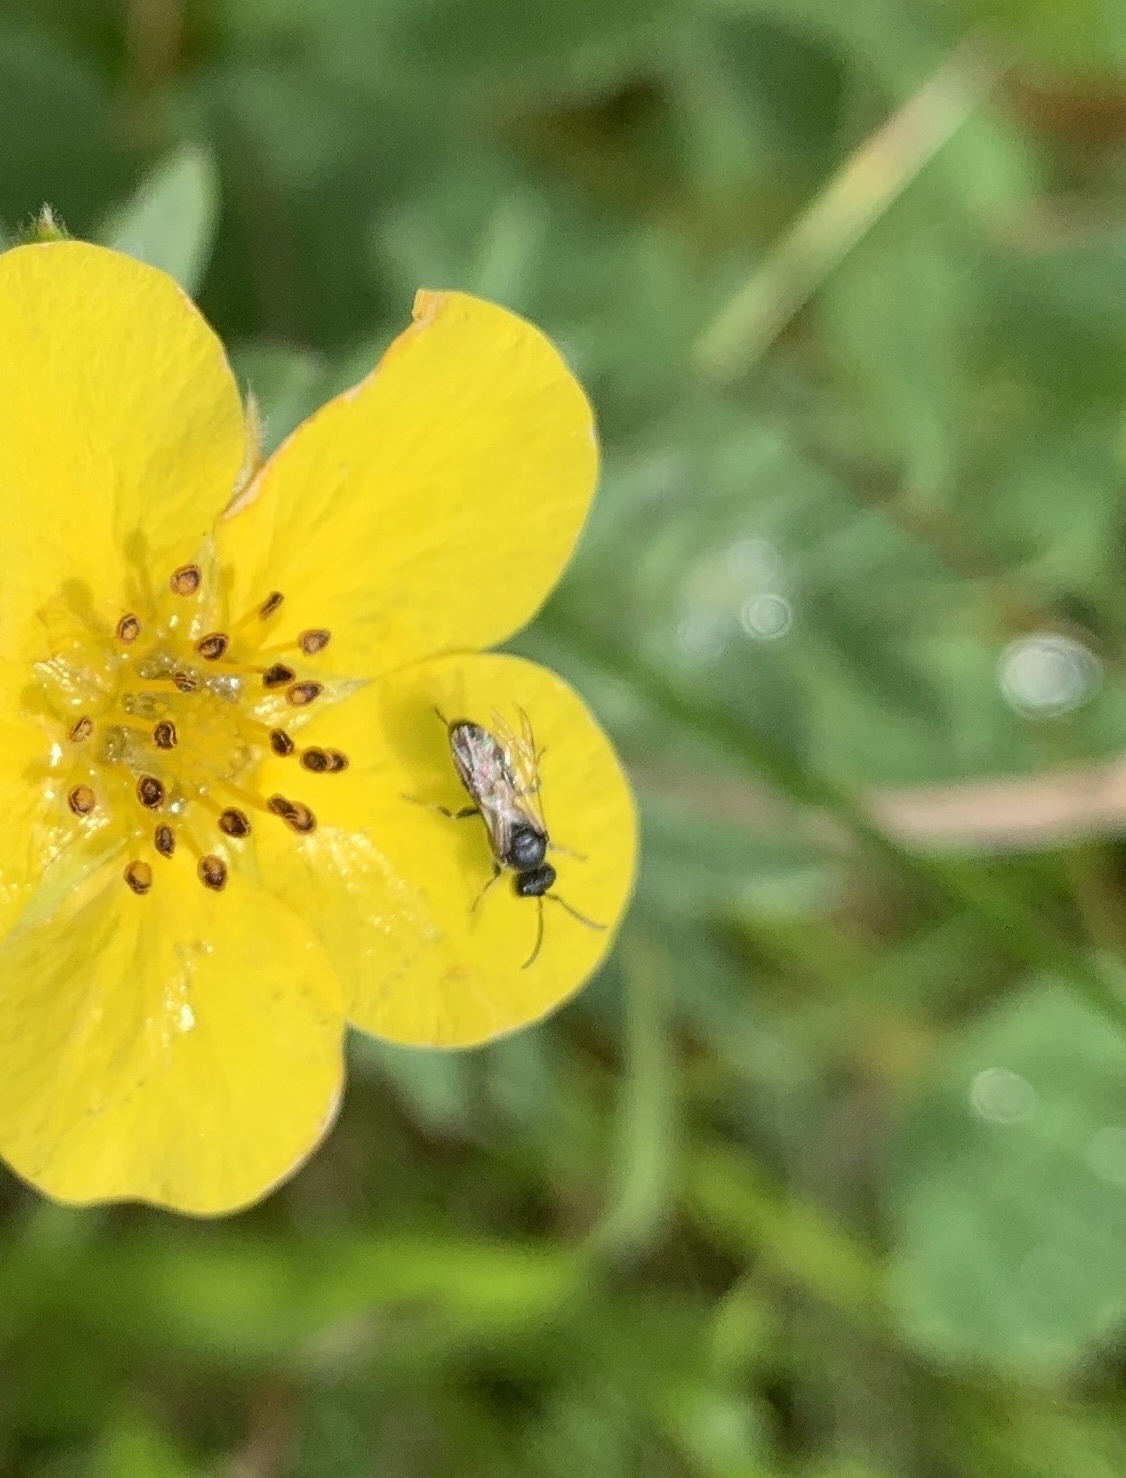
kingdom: Animalia
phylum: Arthropoda
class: Insecta
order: Hymenoptera
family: Halictidae
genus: Dialictus
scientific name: Dialictus
